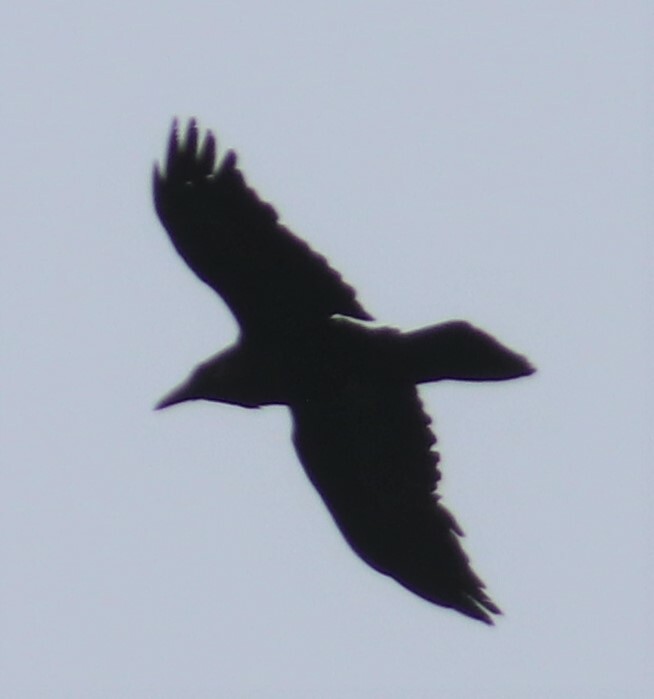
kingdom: Animalia
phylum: Chordata
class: Aves
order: Passeriformes
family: Corvidae
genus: Corvus
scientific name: Corvus corax
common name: Common raven
